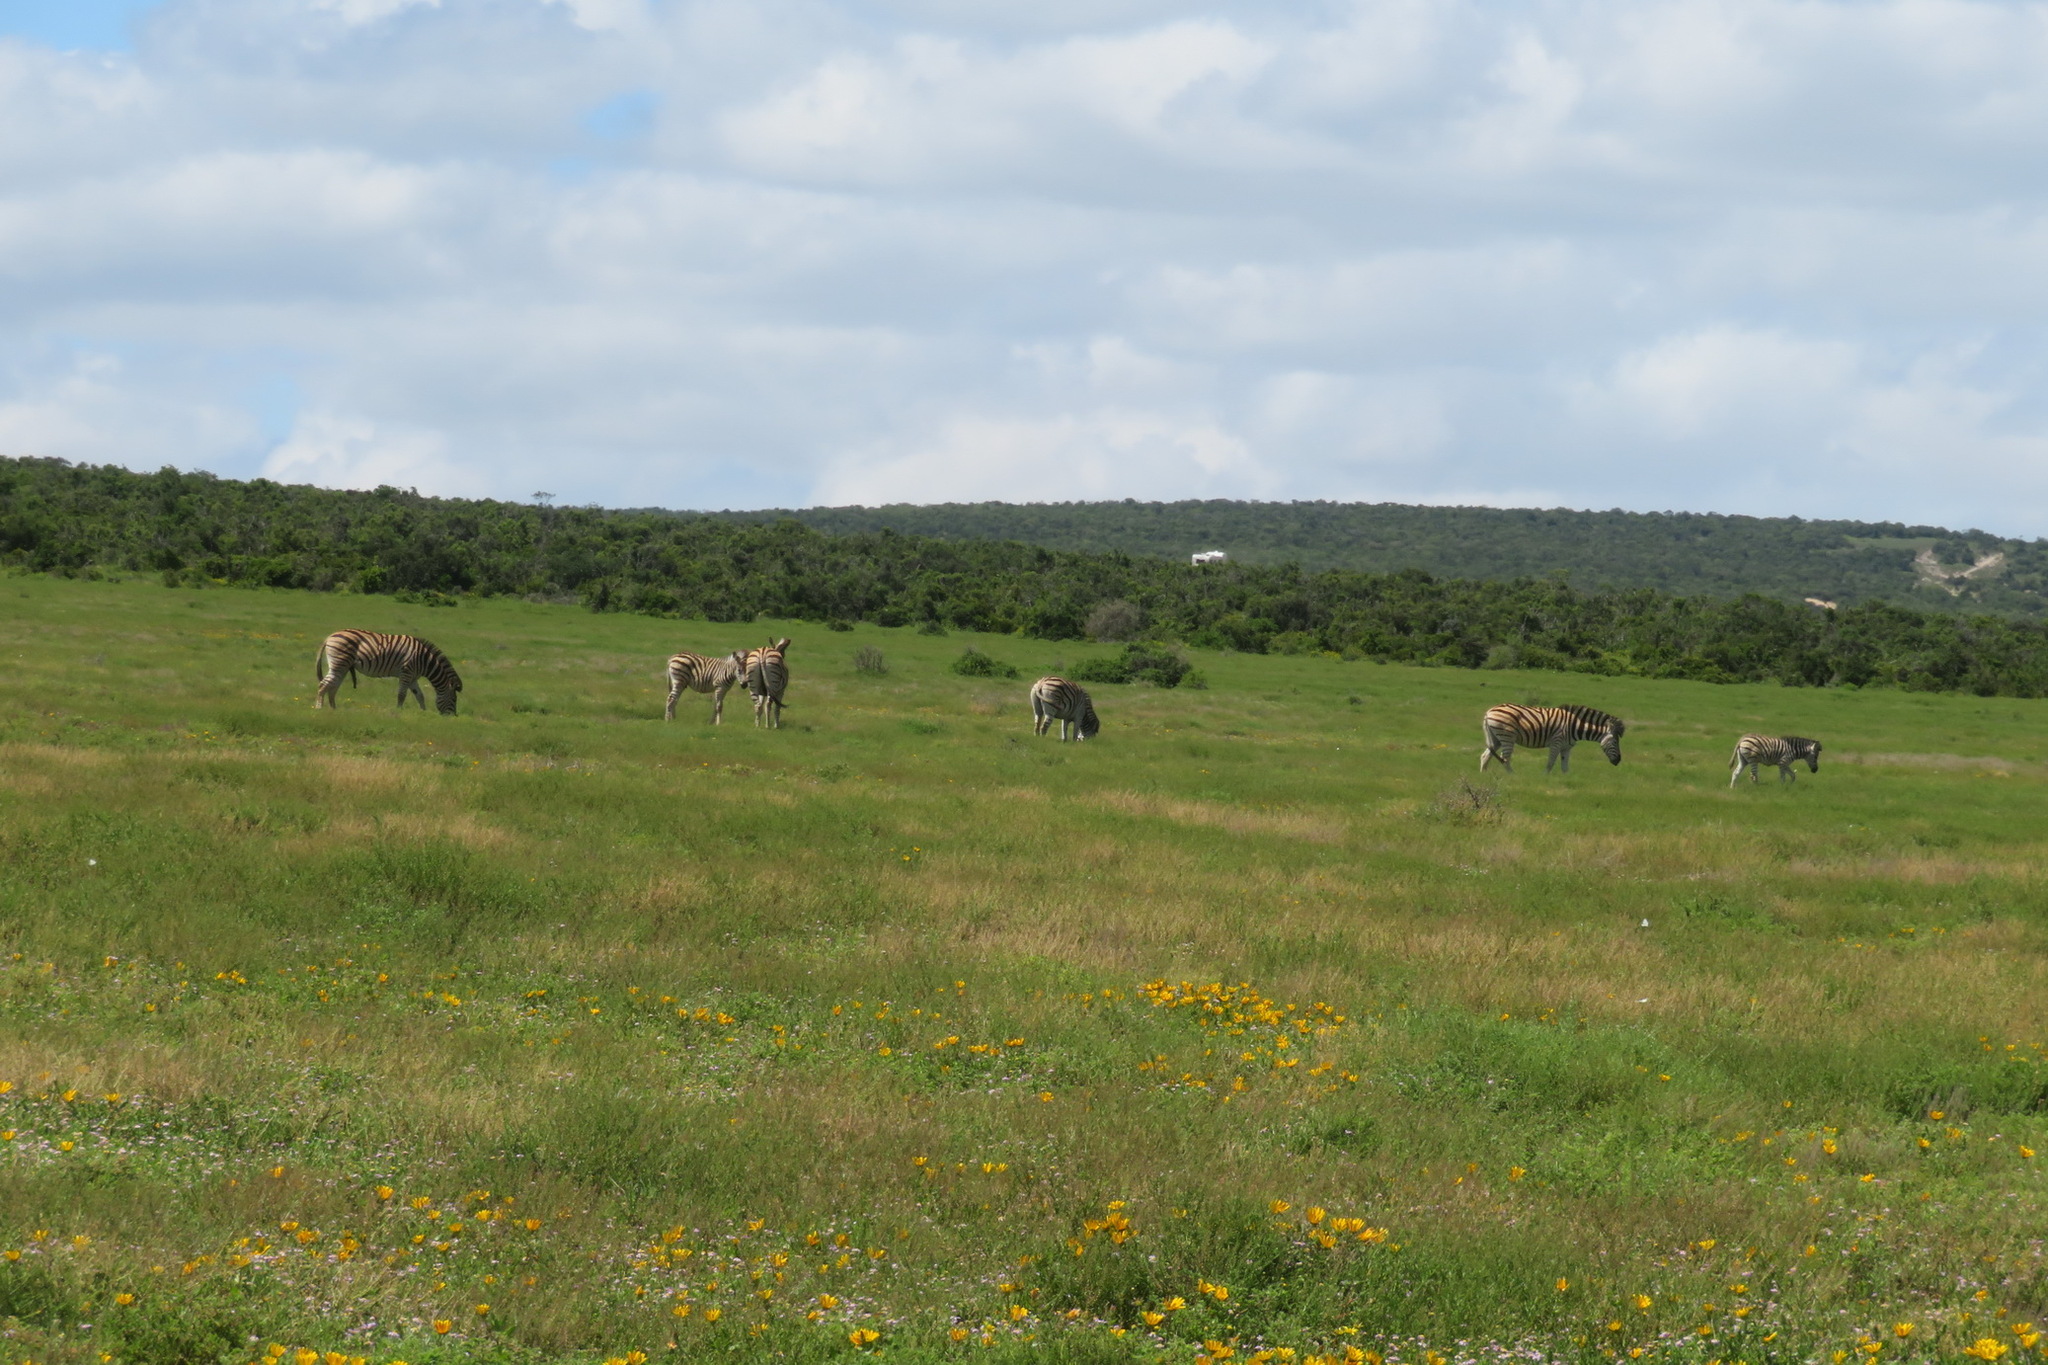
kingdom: Animalia
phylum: Chordata
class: Mammalia
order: Perissodactyla
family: Equidae
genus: Equus
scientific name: Equus quagga
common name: Plains zebra
